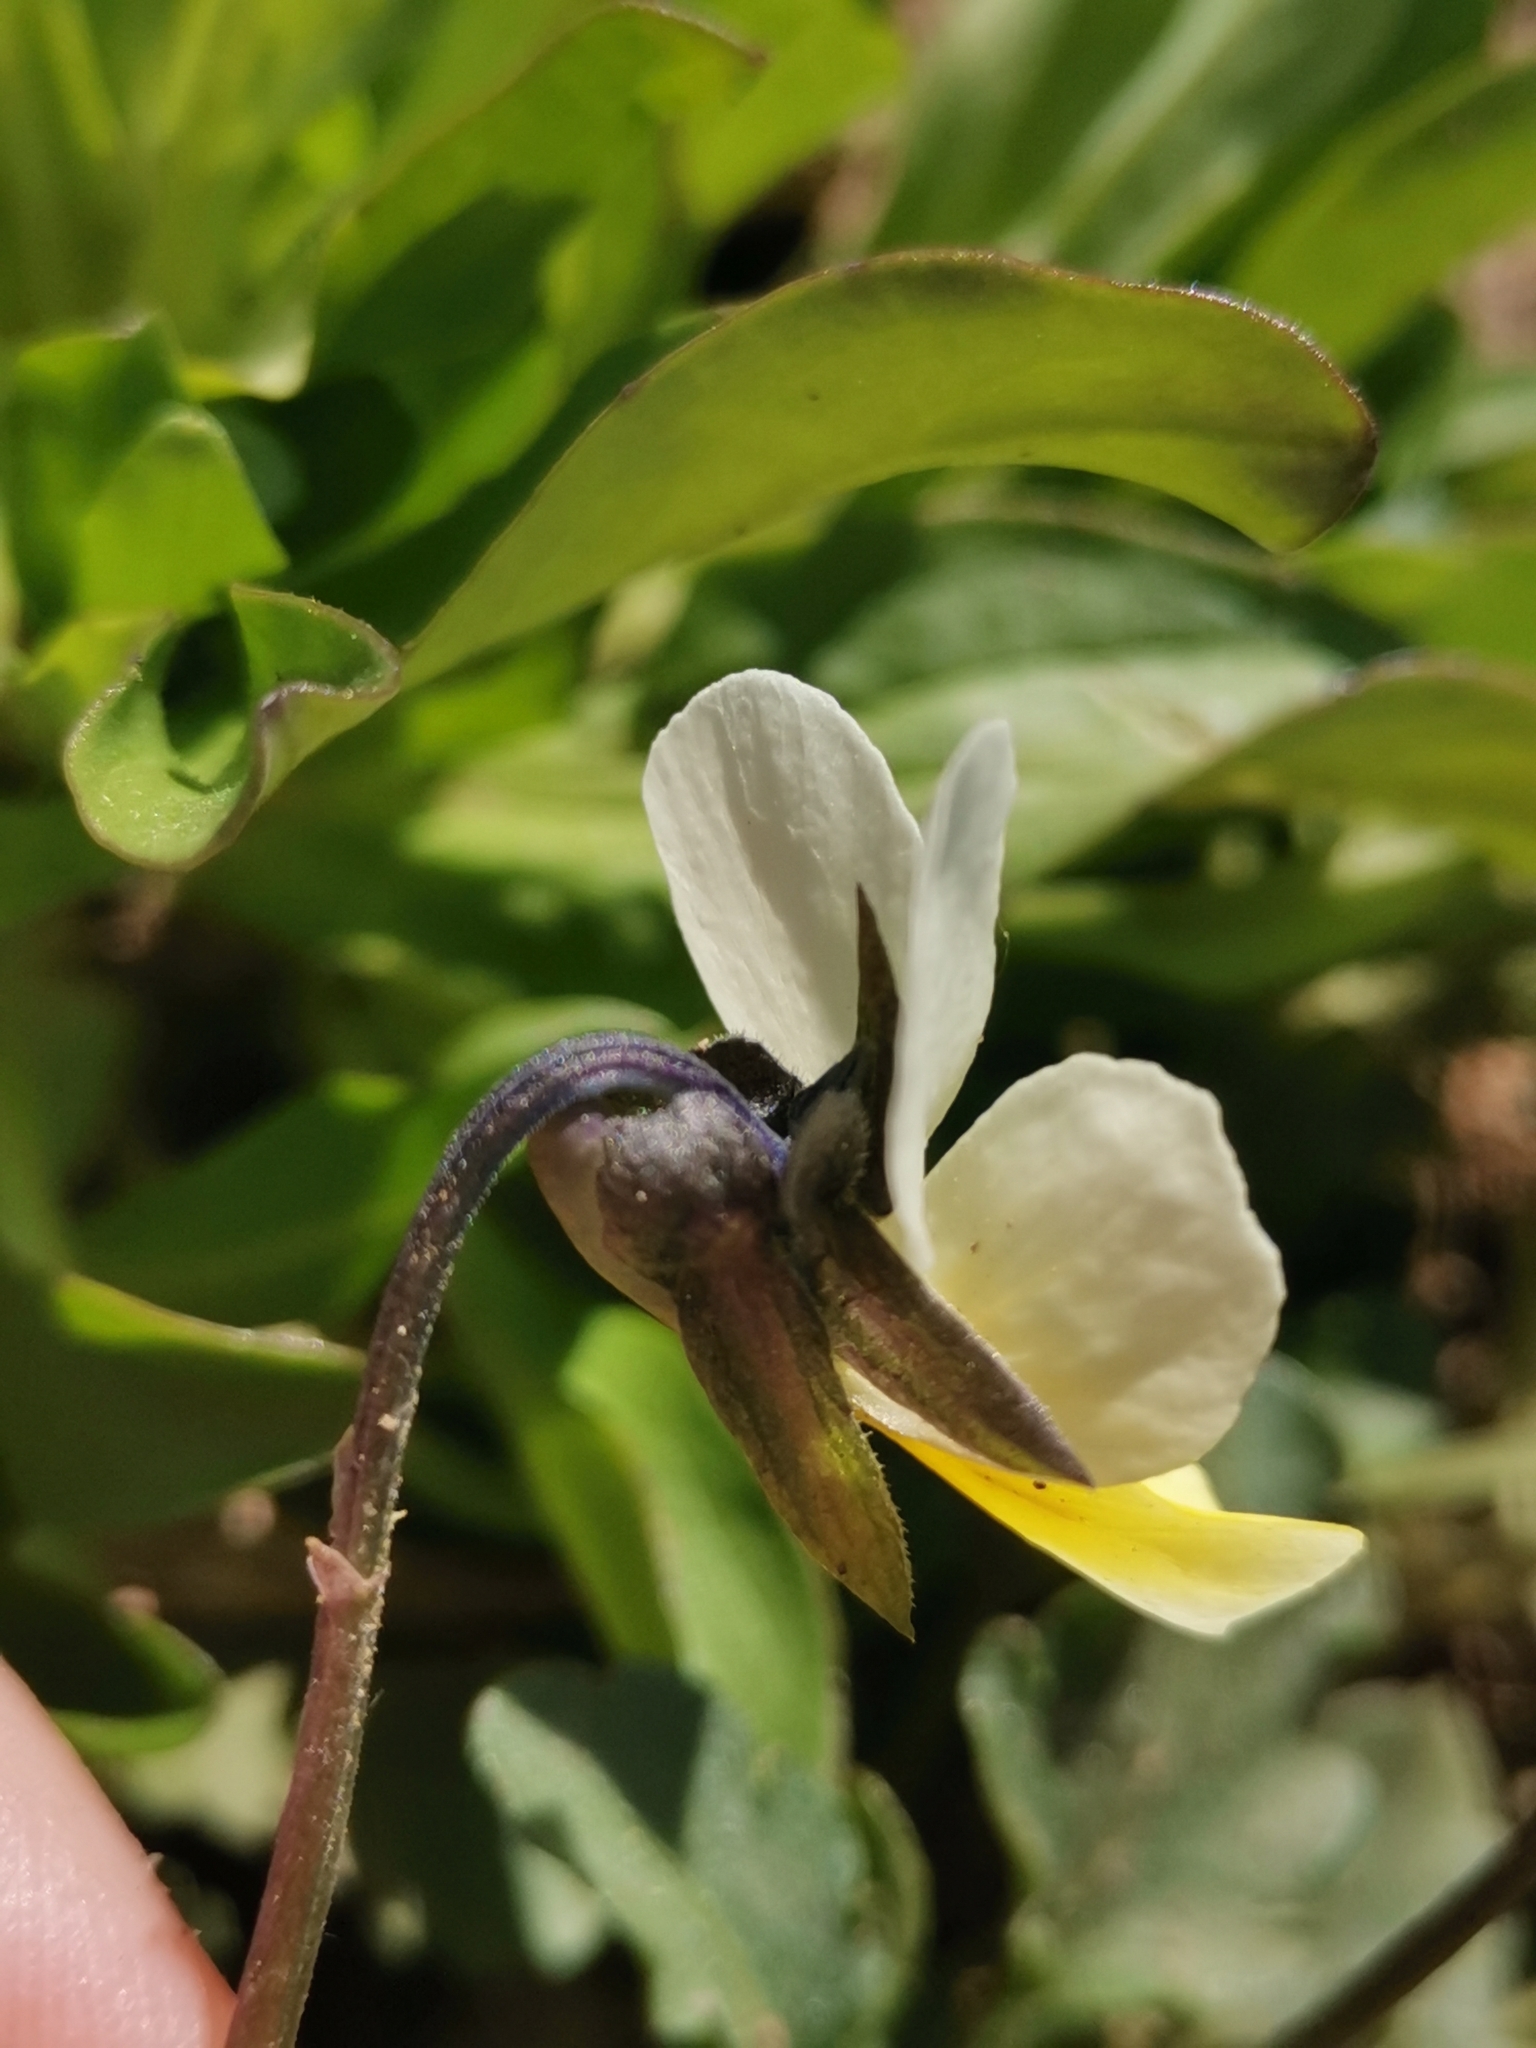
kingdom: Plantae
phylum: Tracheophyta
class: Magnoliopsida
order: Malpighiales
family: Violaceae
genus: Viola
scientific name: Viola arvensis
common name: Field pansy
